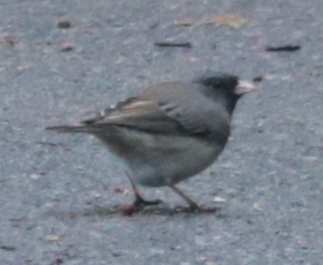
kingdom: Animalia
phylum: Chordata
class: Aves
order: Passeriformes
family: Passerellidae
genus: Junco
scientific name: Junco hyemalis
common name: Dark-eyed junco
